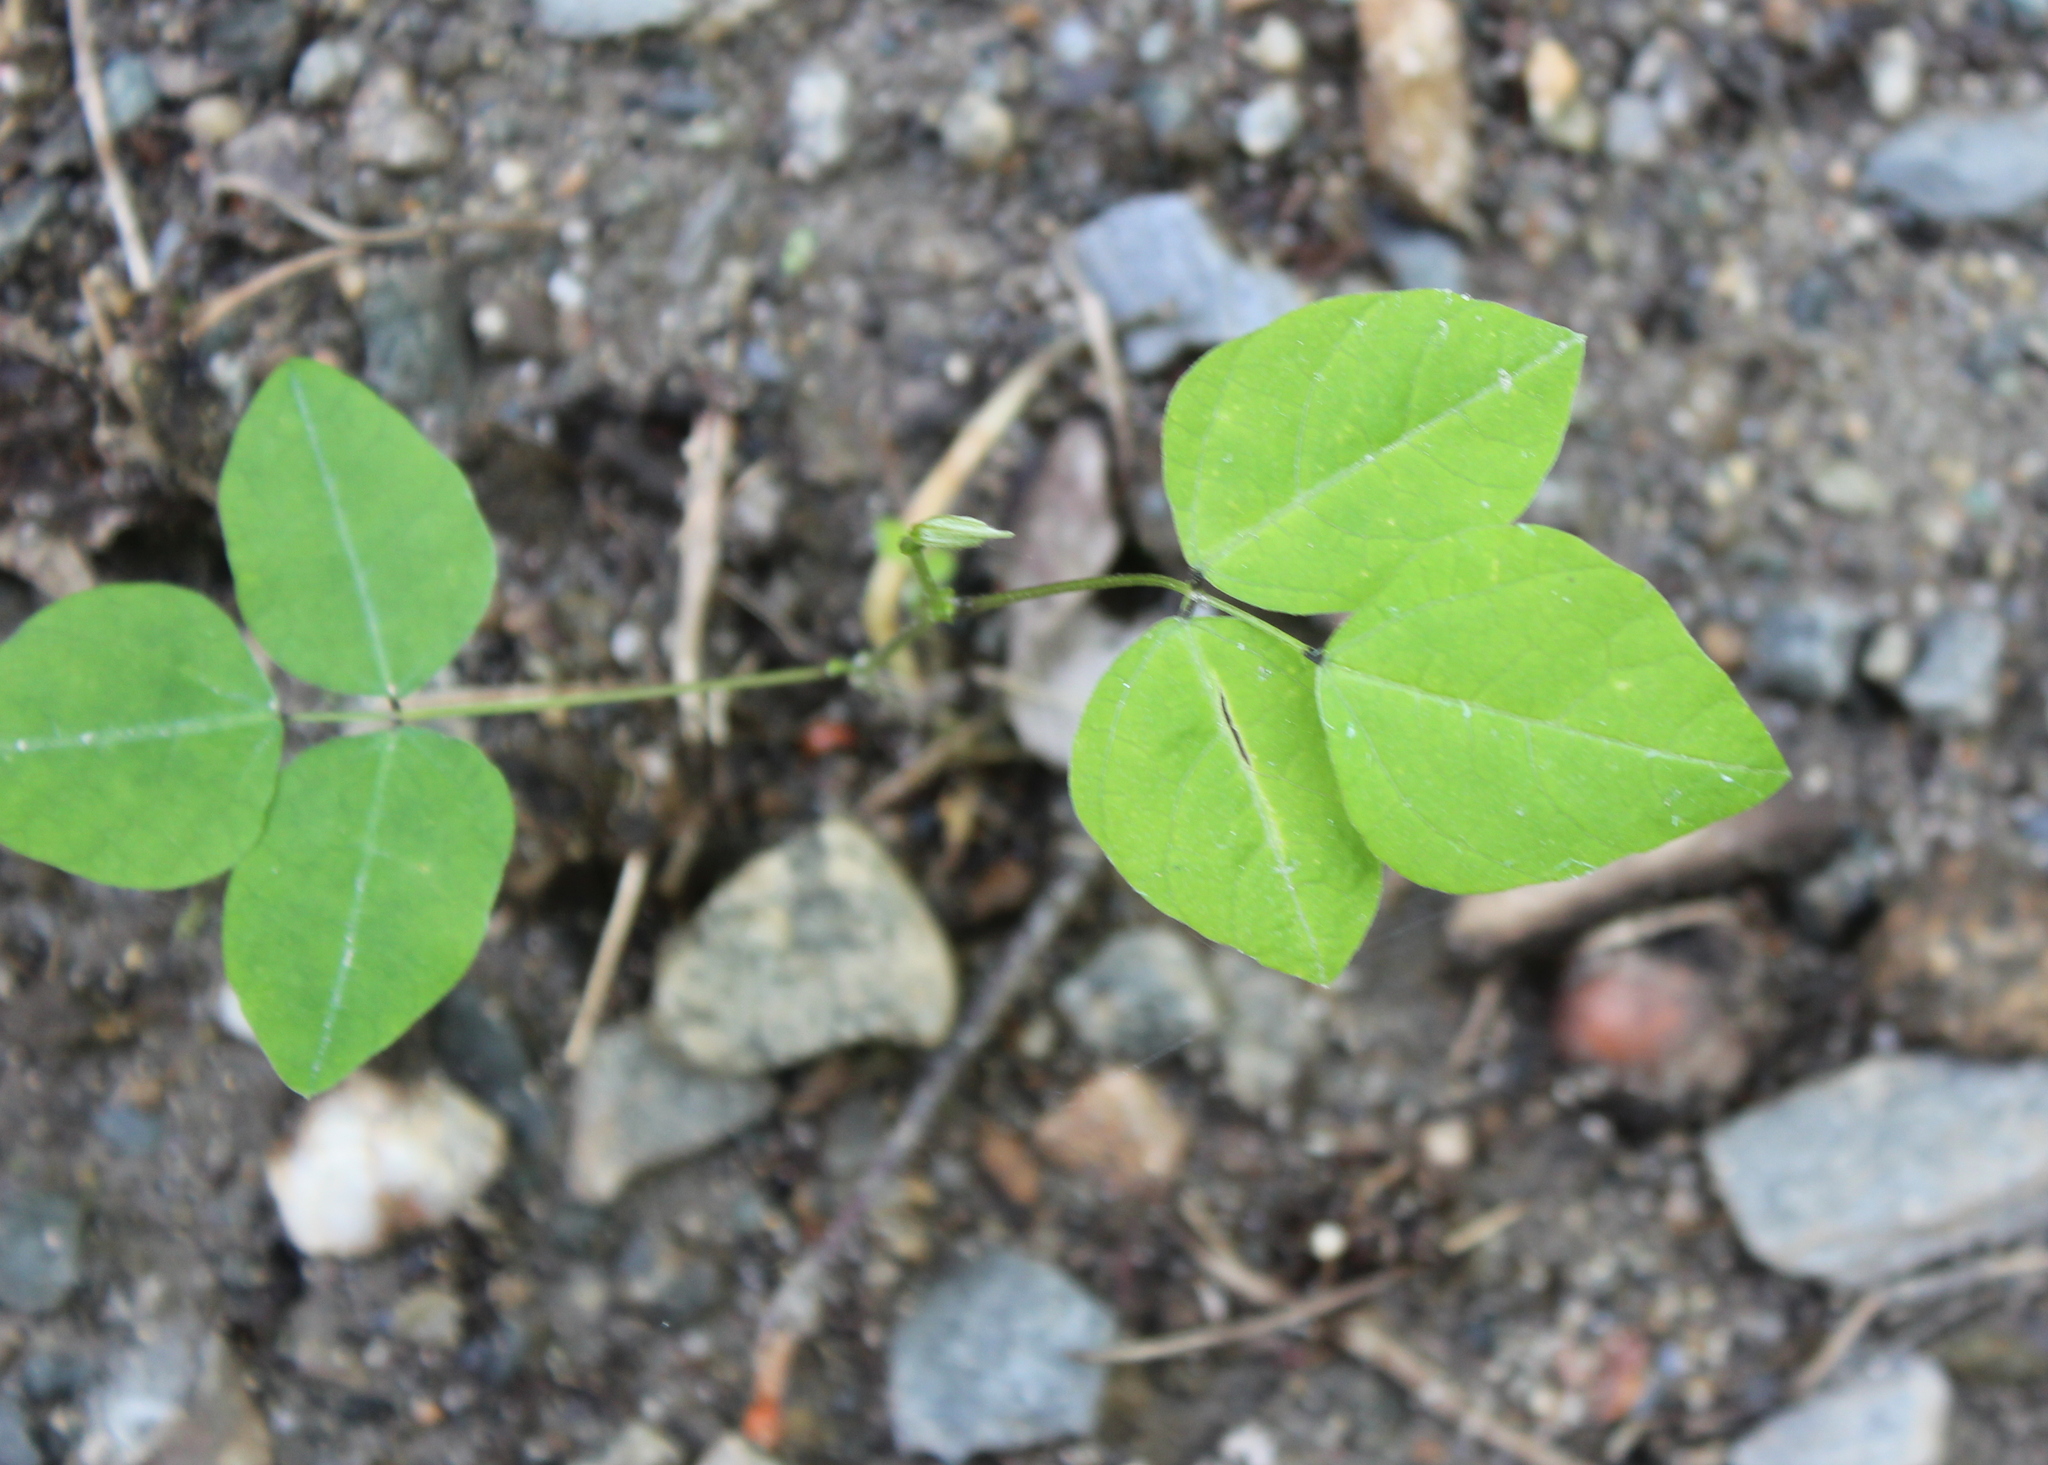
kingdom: Plantae
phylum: Tracheophyta
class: Magnoliopsida
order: Fabales
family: Fabaceae
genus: Amphicarpaea
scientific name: Amphicarpaea bracteata
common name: American hog peanut
